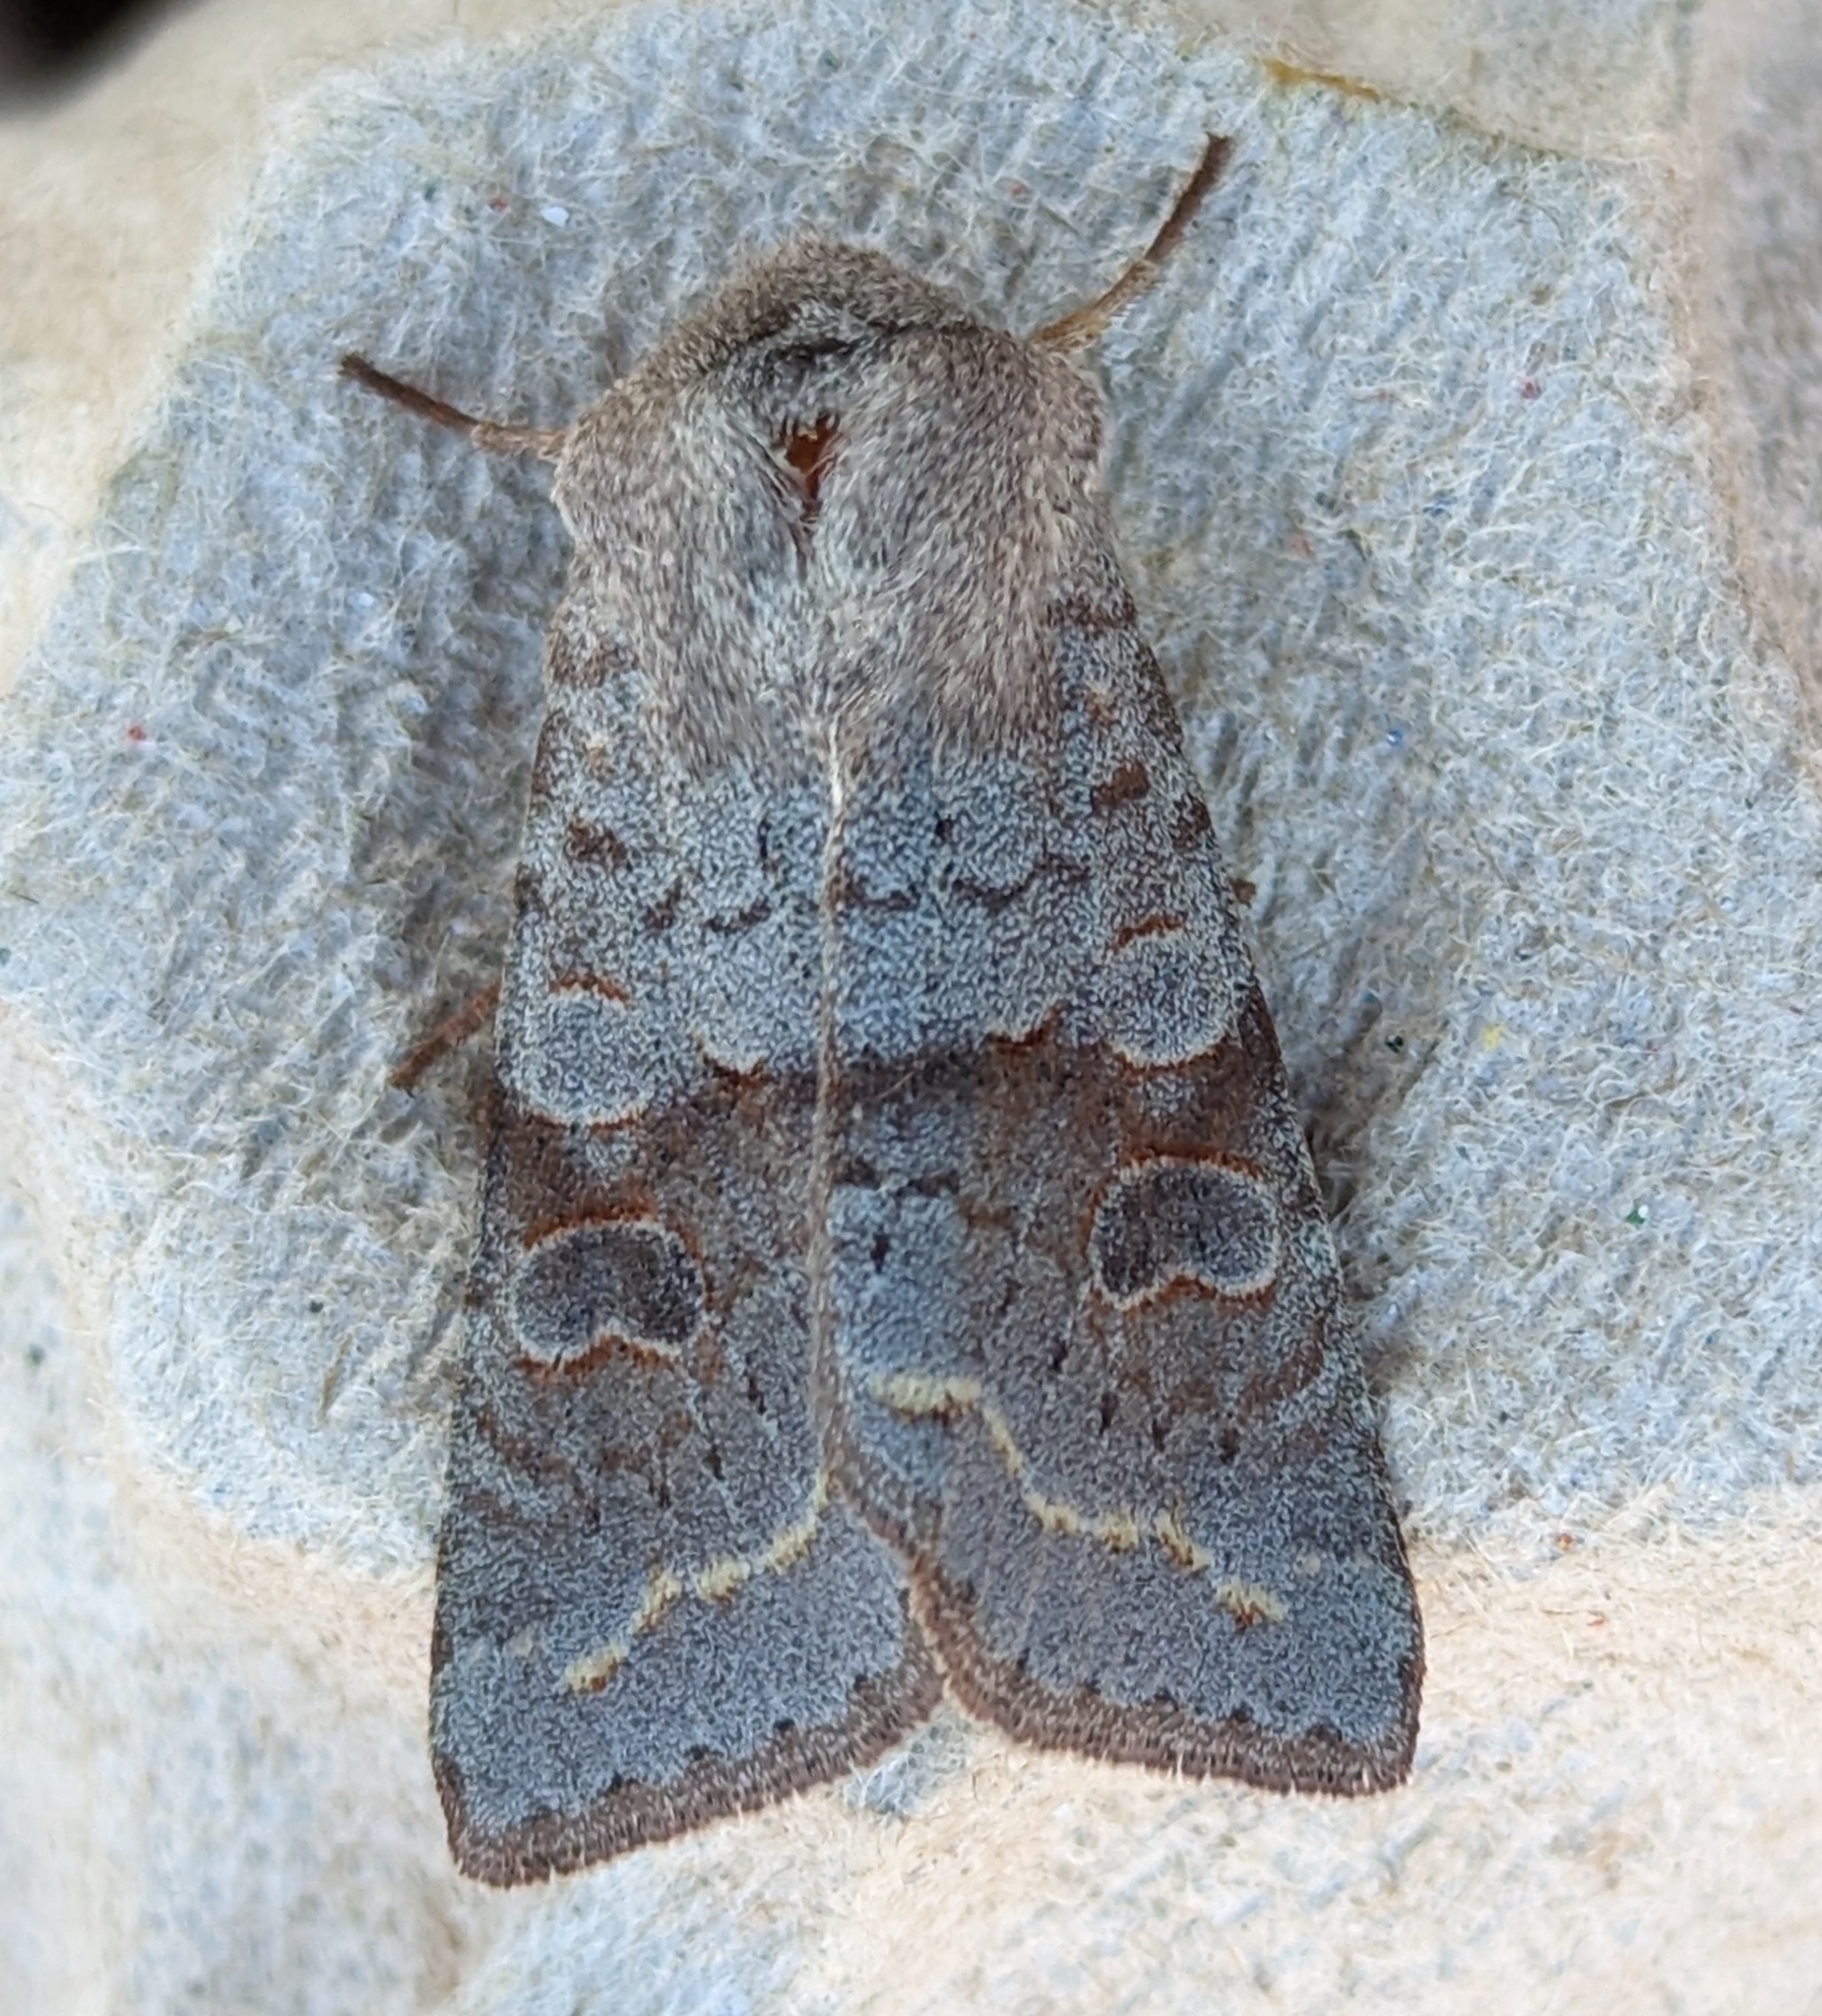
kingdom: Animalia
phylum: Arthropoda
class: Insecta
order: Lepidoptera
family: Noctuidae
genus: Orthosia
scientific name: Orthosia revicta
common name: Rusty whitesided caterpillar
